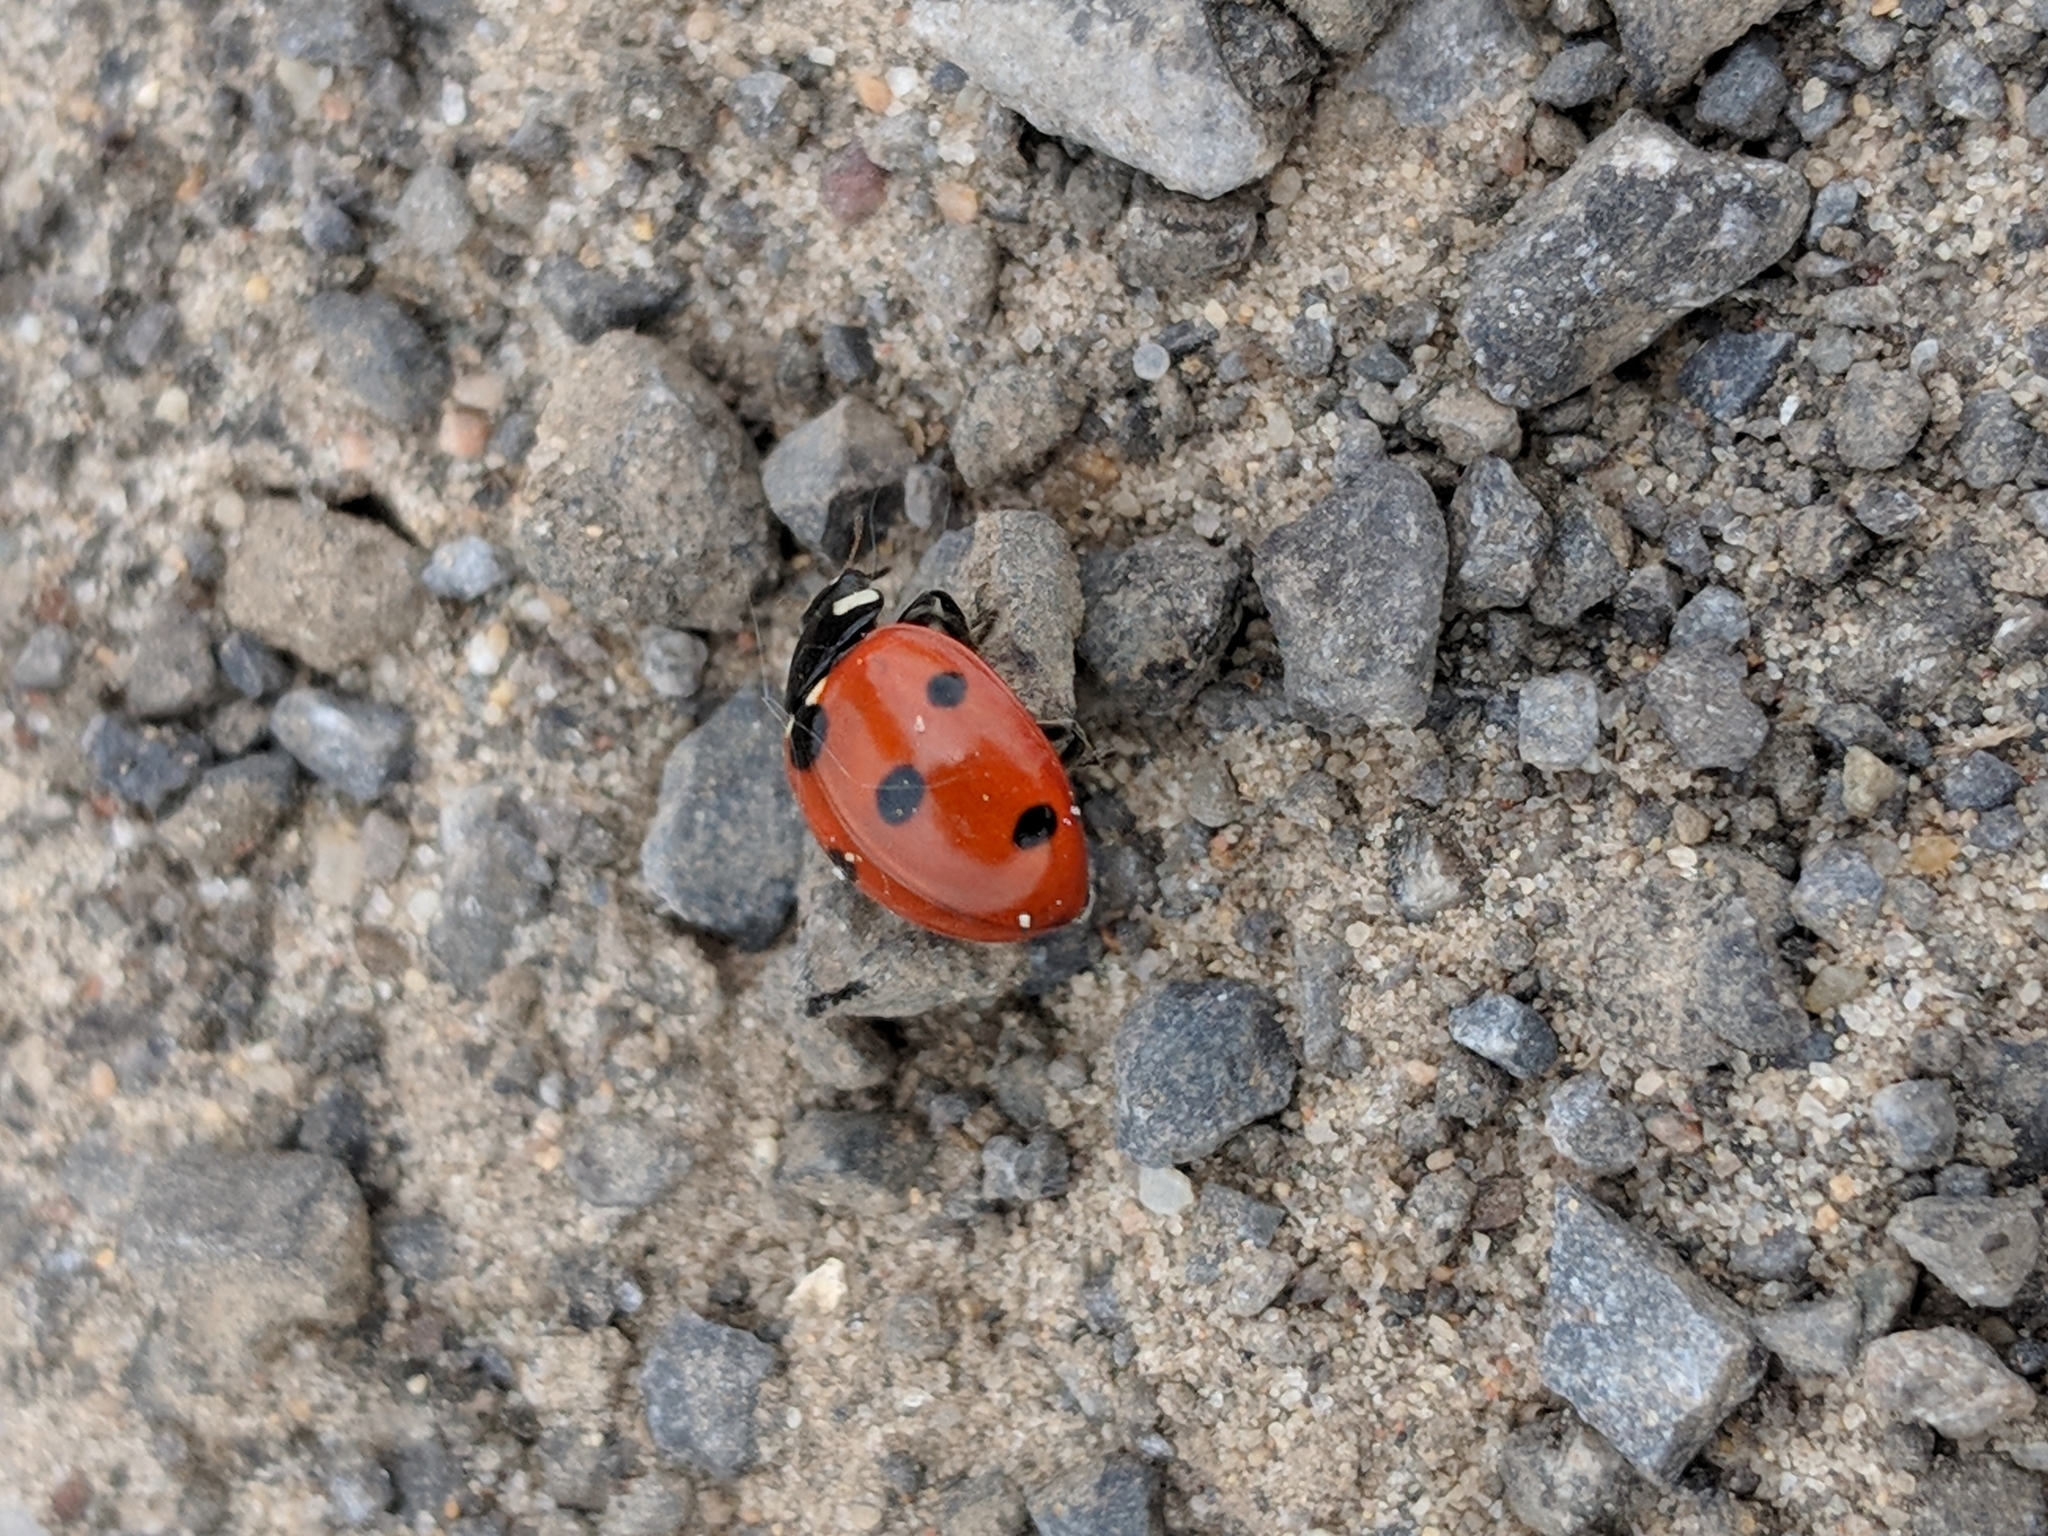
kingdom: Animalia
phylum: Arthropoda
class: Insecta
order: Coleoptera
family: Coccinellidae
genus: Coccinella
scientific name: Coccinella septempunctata
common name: Sevenspotted lady beetle
